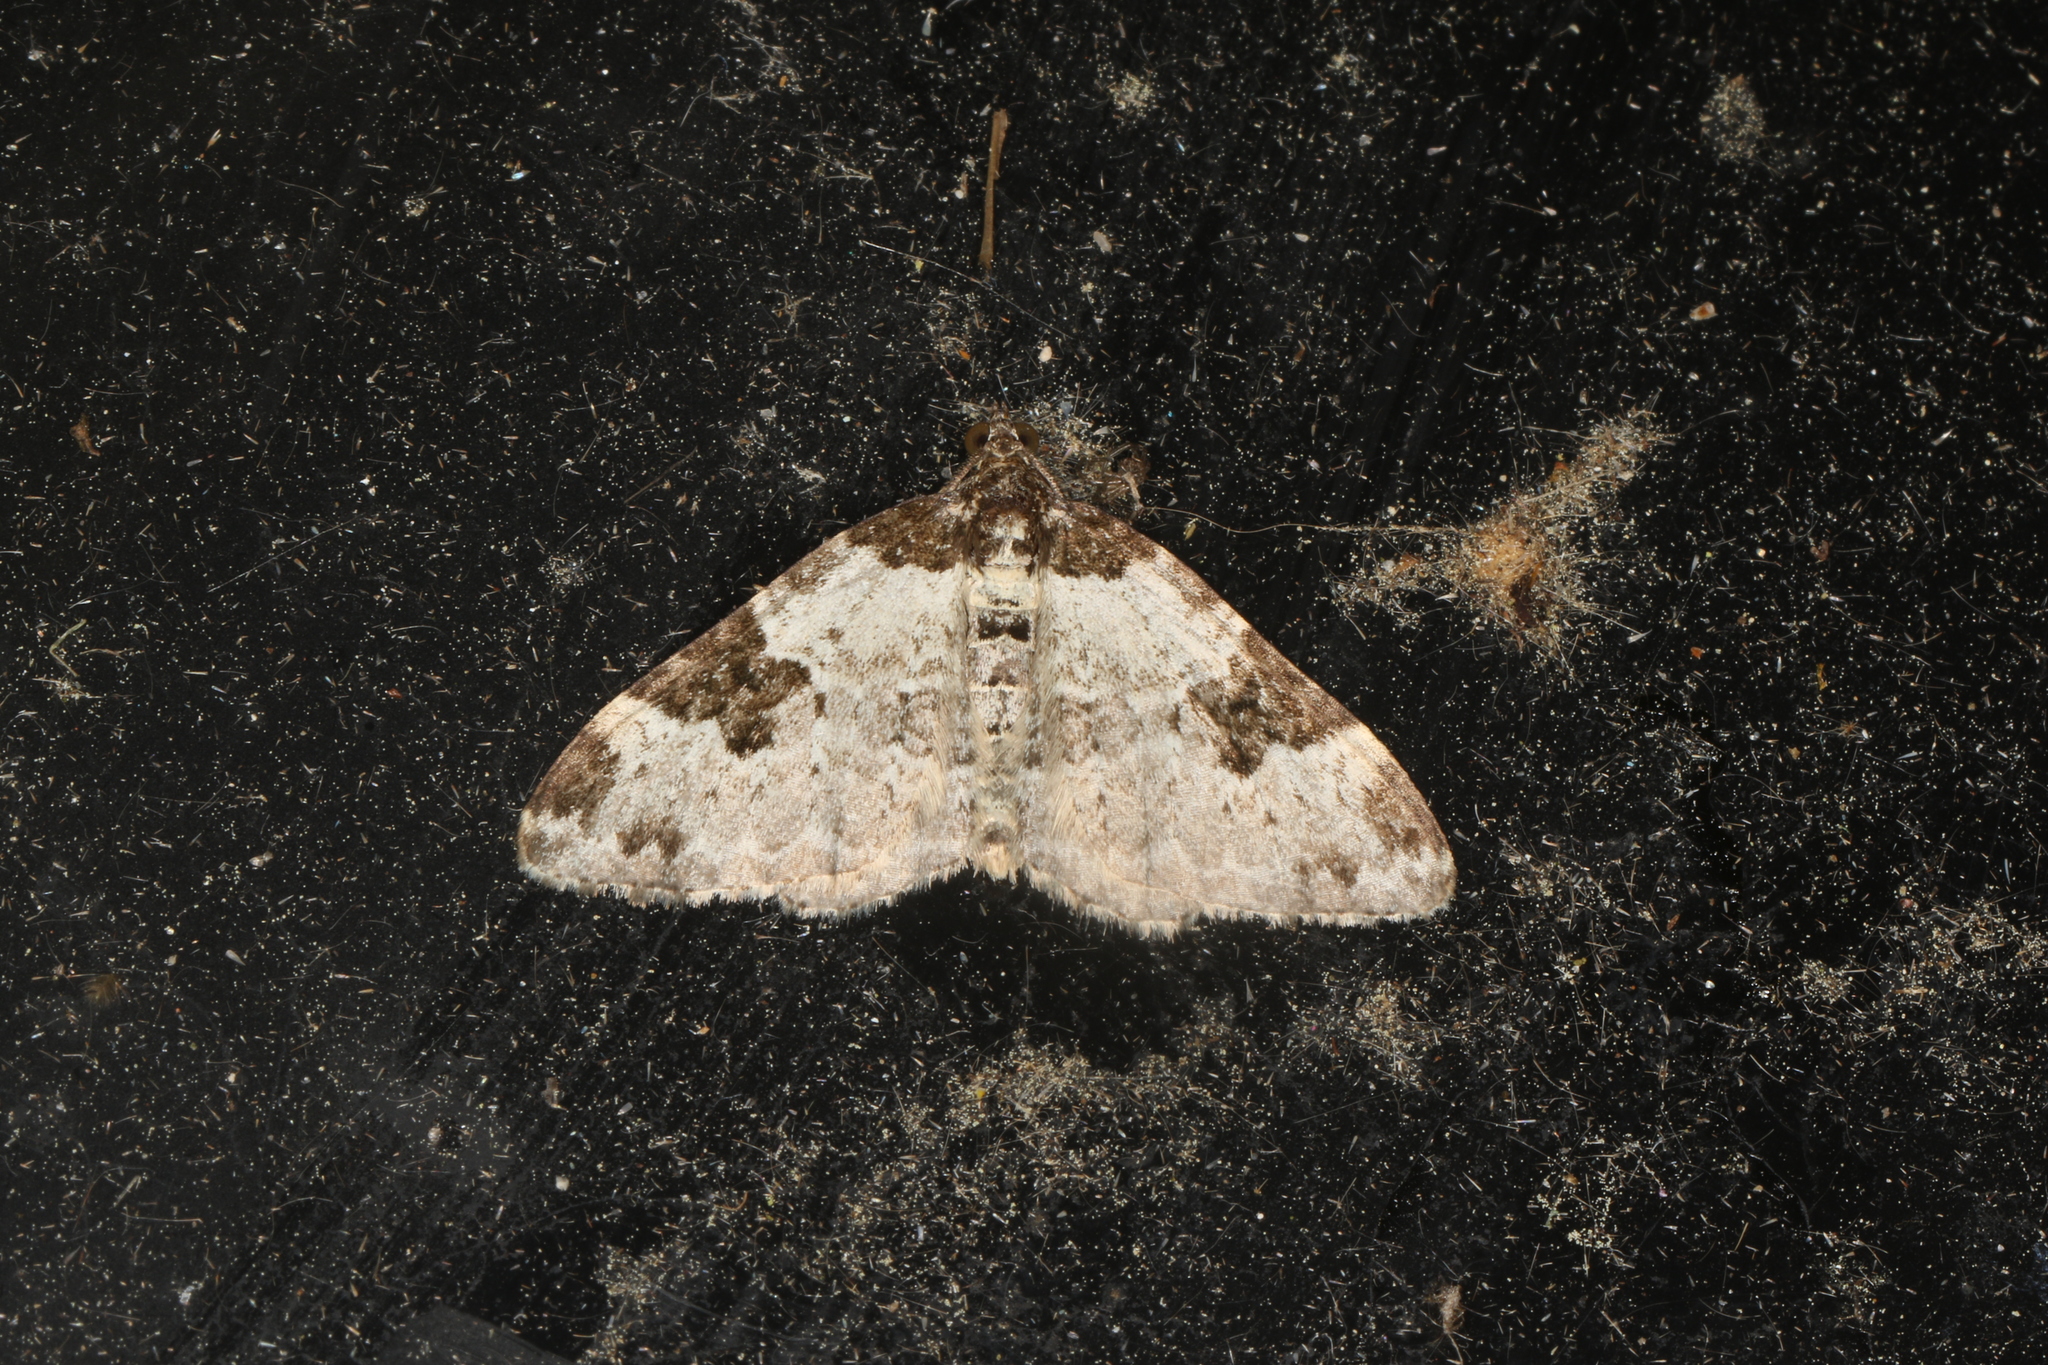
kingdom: Animalia
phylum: Arthropoda
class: Insecta
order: Lepidoptera
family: Geometridae
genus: Xanthorhoe
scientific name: Xanthorhoe fluctuata
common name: Garden carpet
